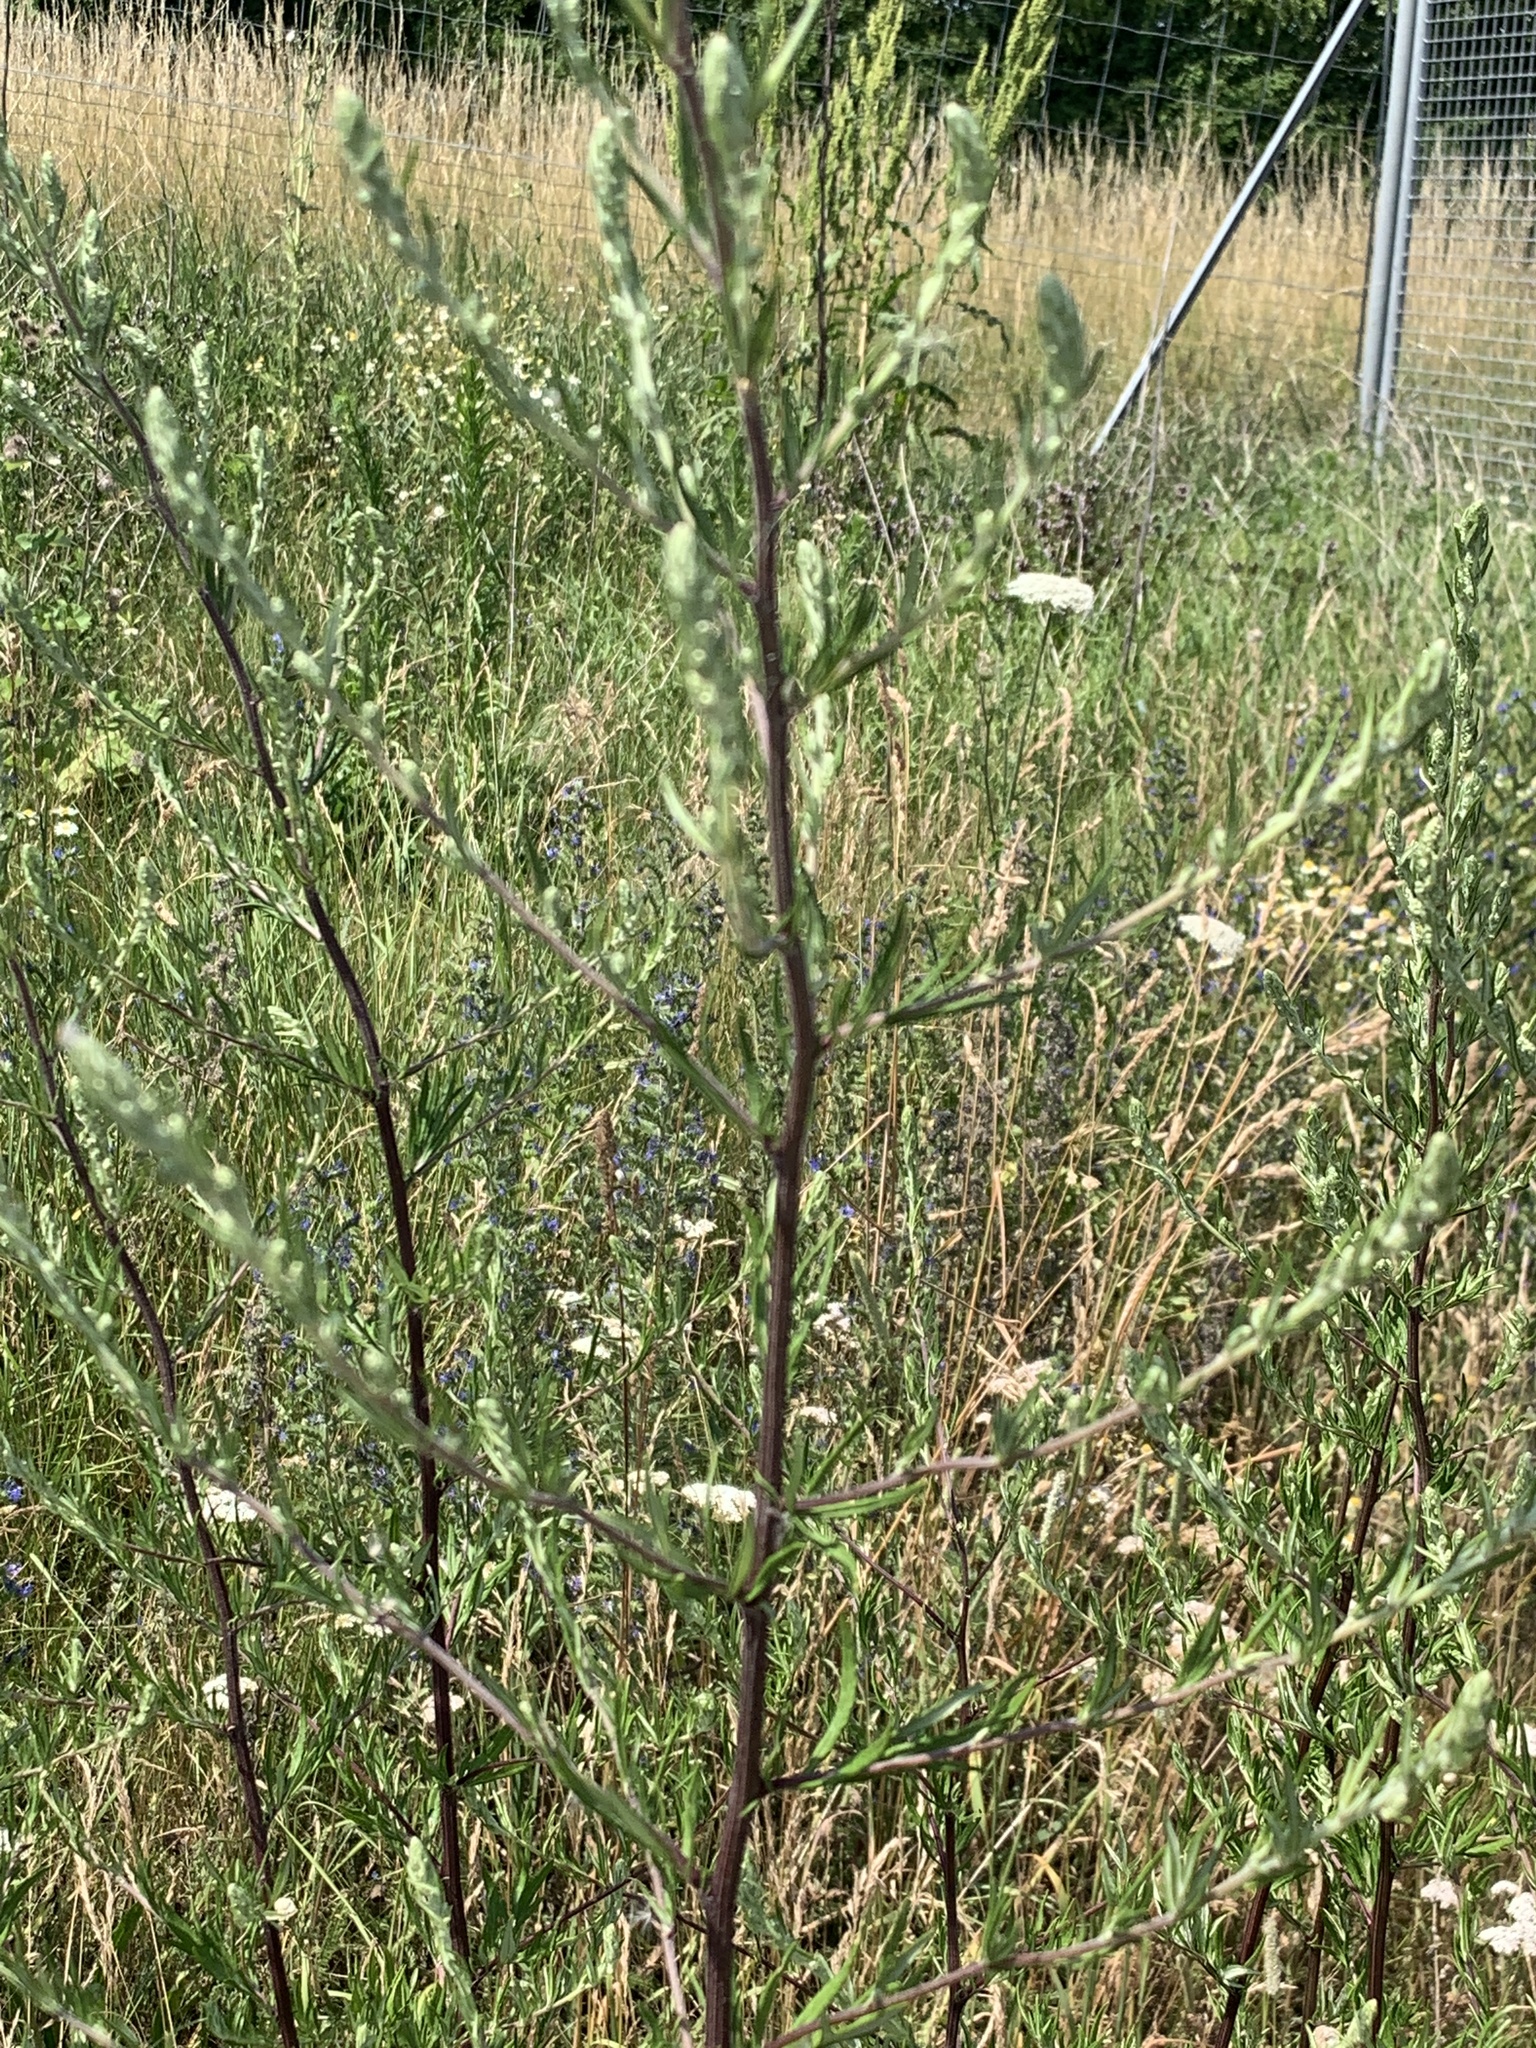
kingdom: Plantae
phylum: Tracheophyta
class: Magnoliopsida
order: Asterales
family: Asteraceae
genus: Artemisia
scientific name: Artemisia vulgaris
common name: Mugwort
